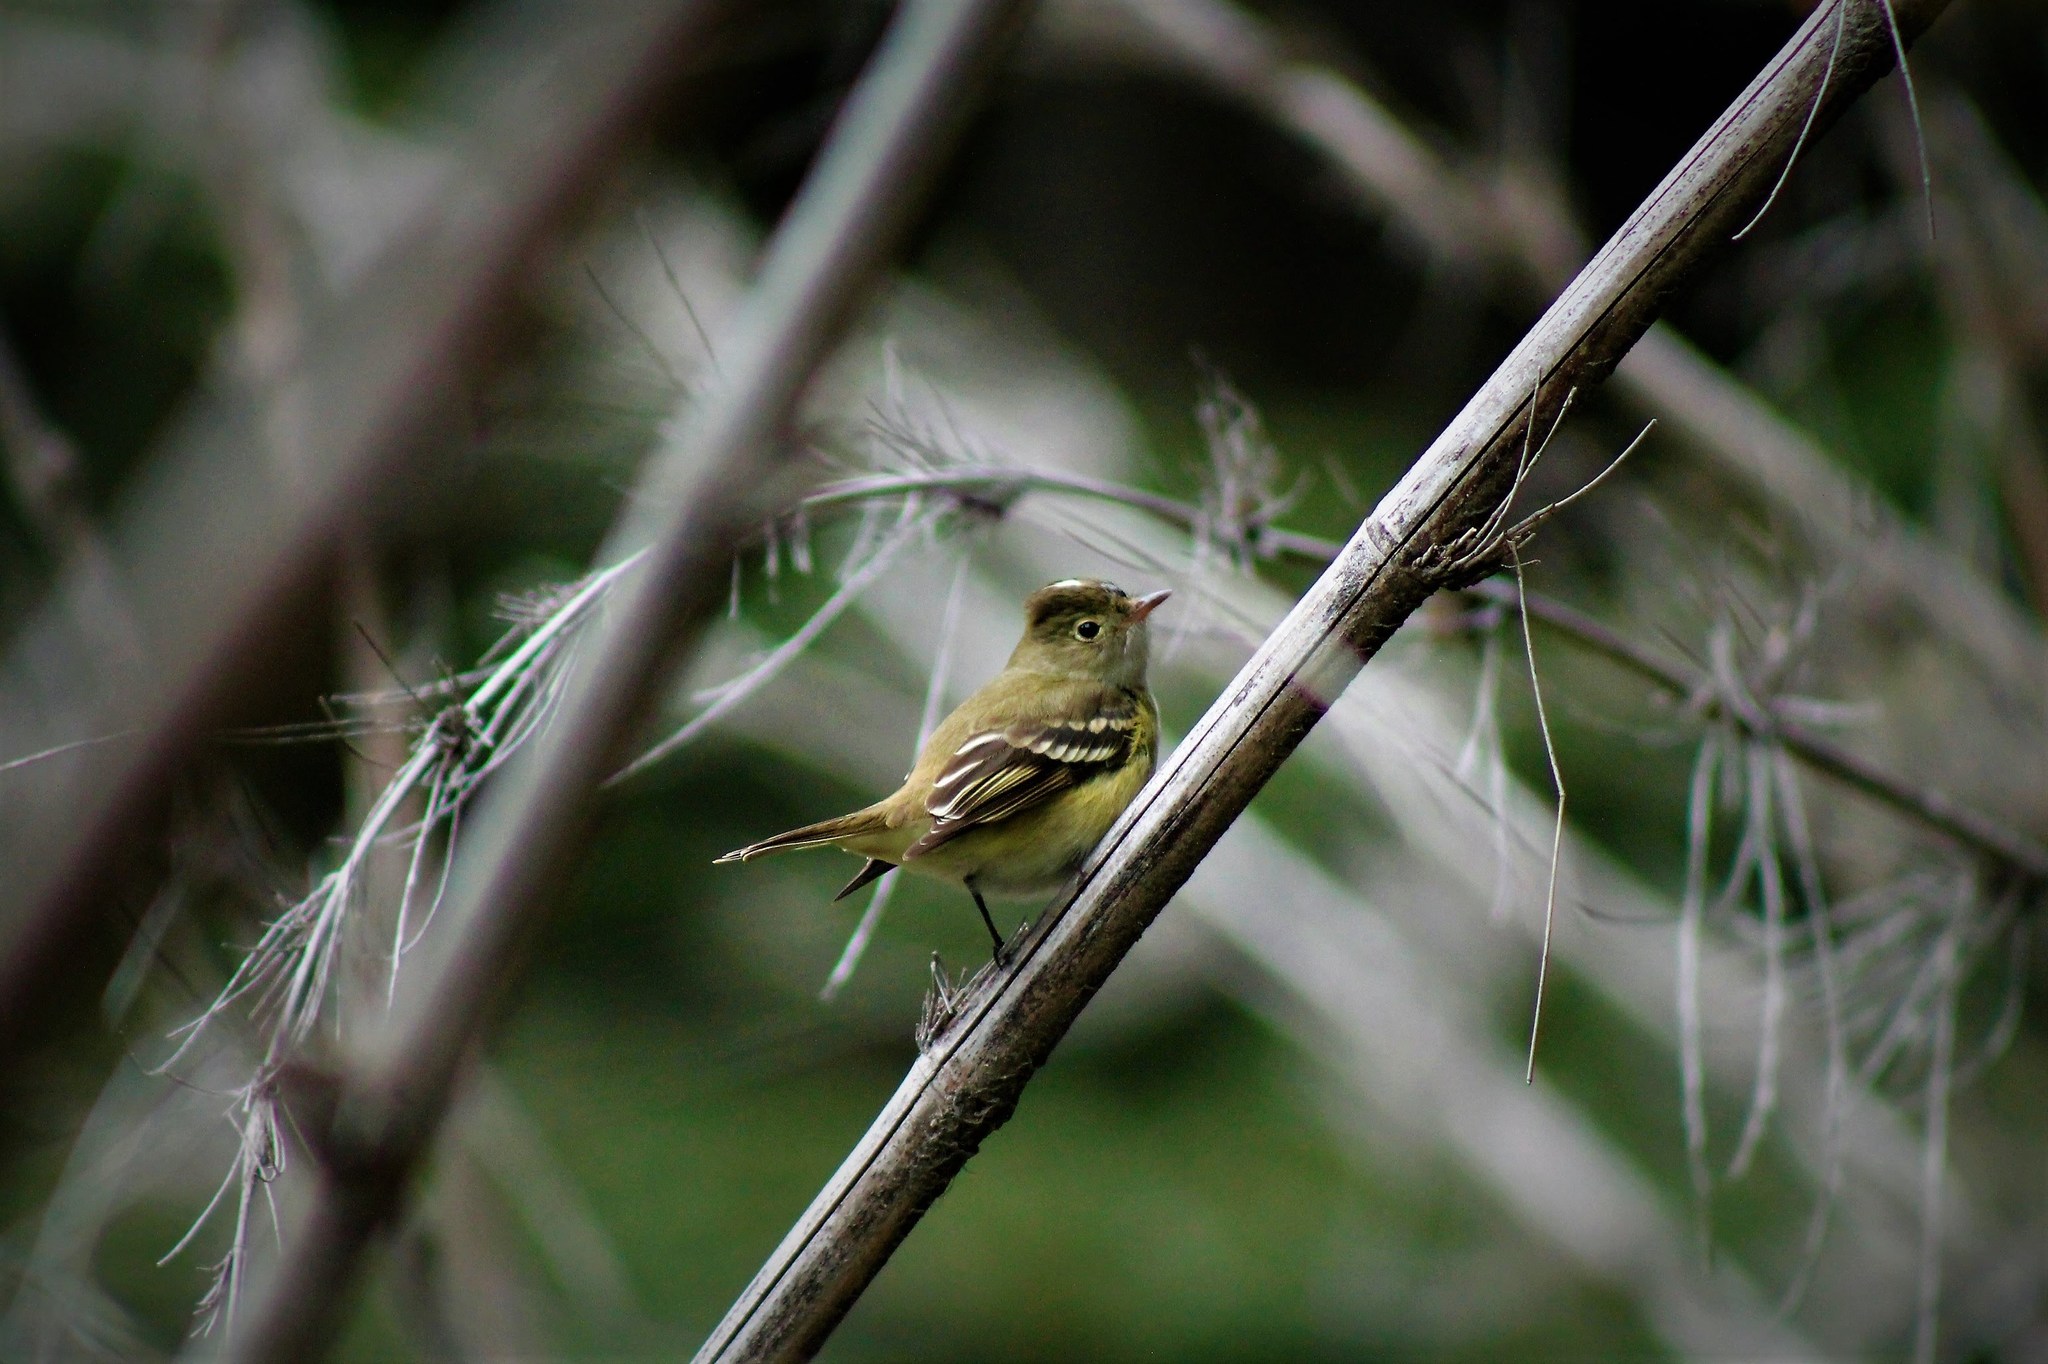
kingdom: Animalia
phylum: Chordata
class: Aves
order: Passeriformes
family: Tyrannidae
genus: Elaenia
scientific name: Elaenia albiceps
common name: White-crested elaenia
